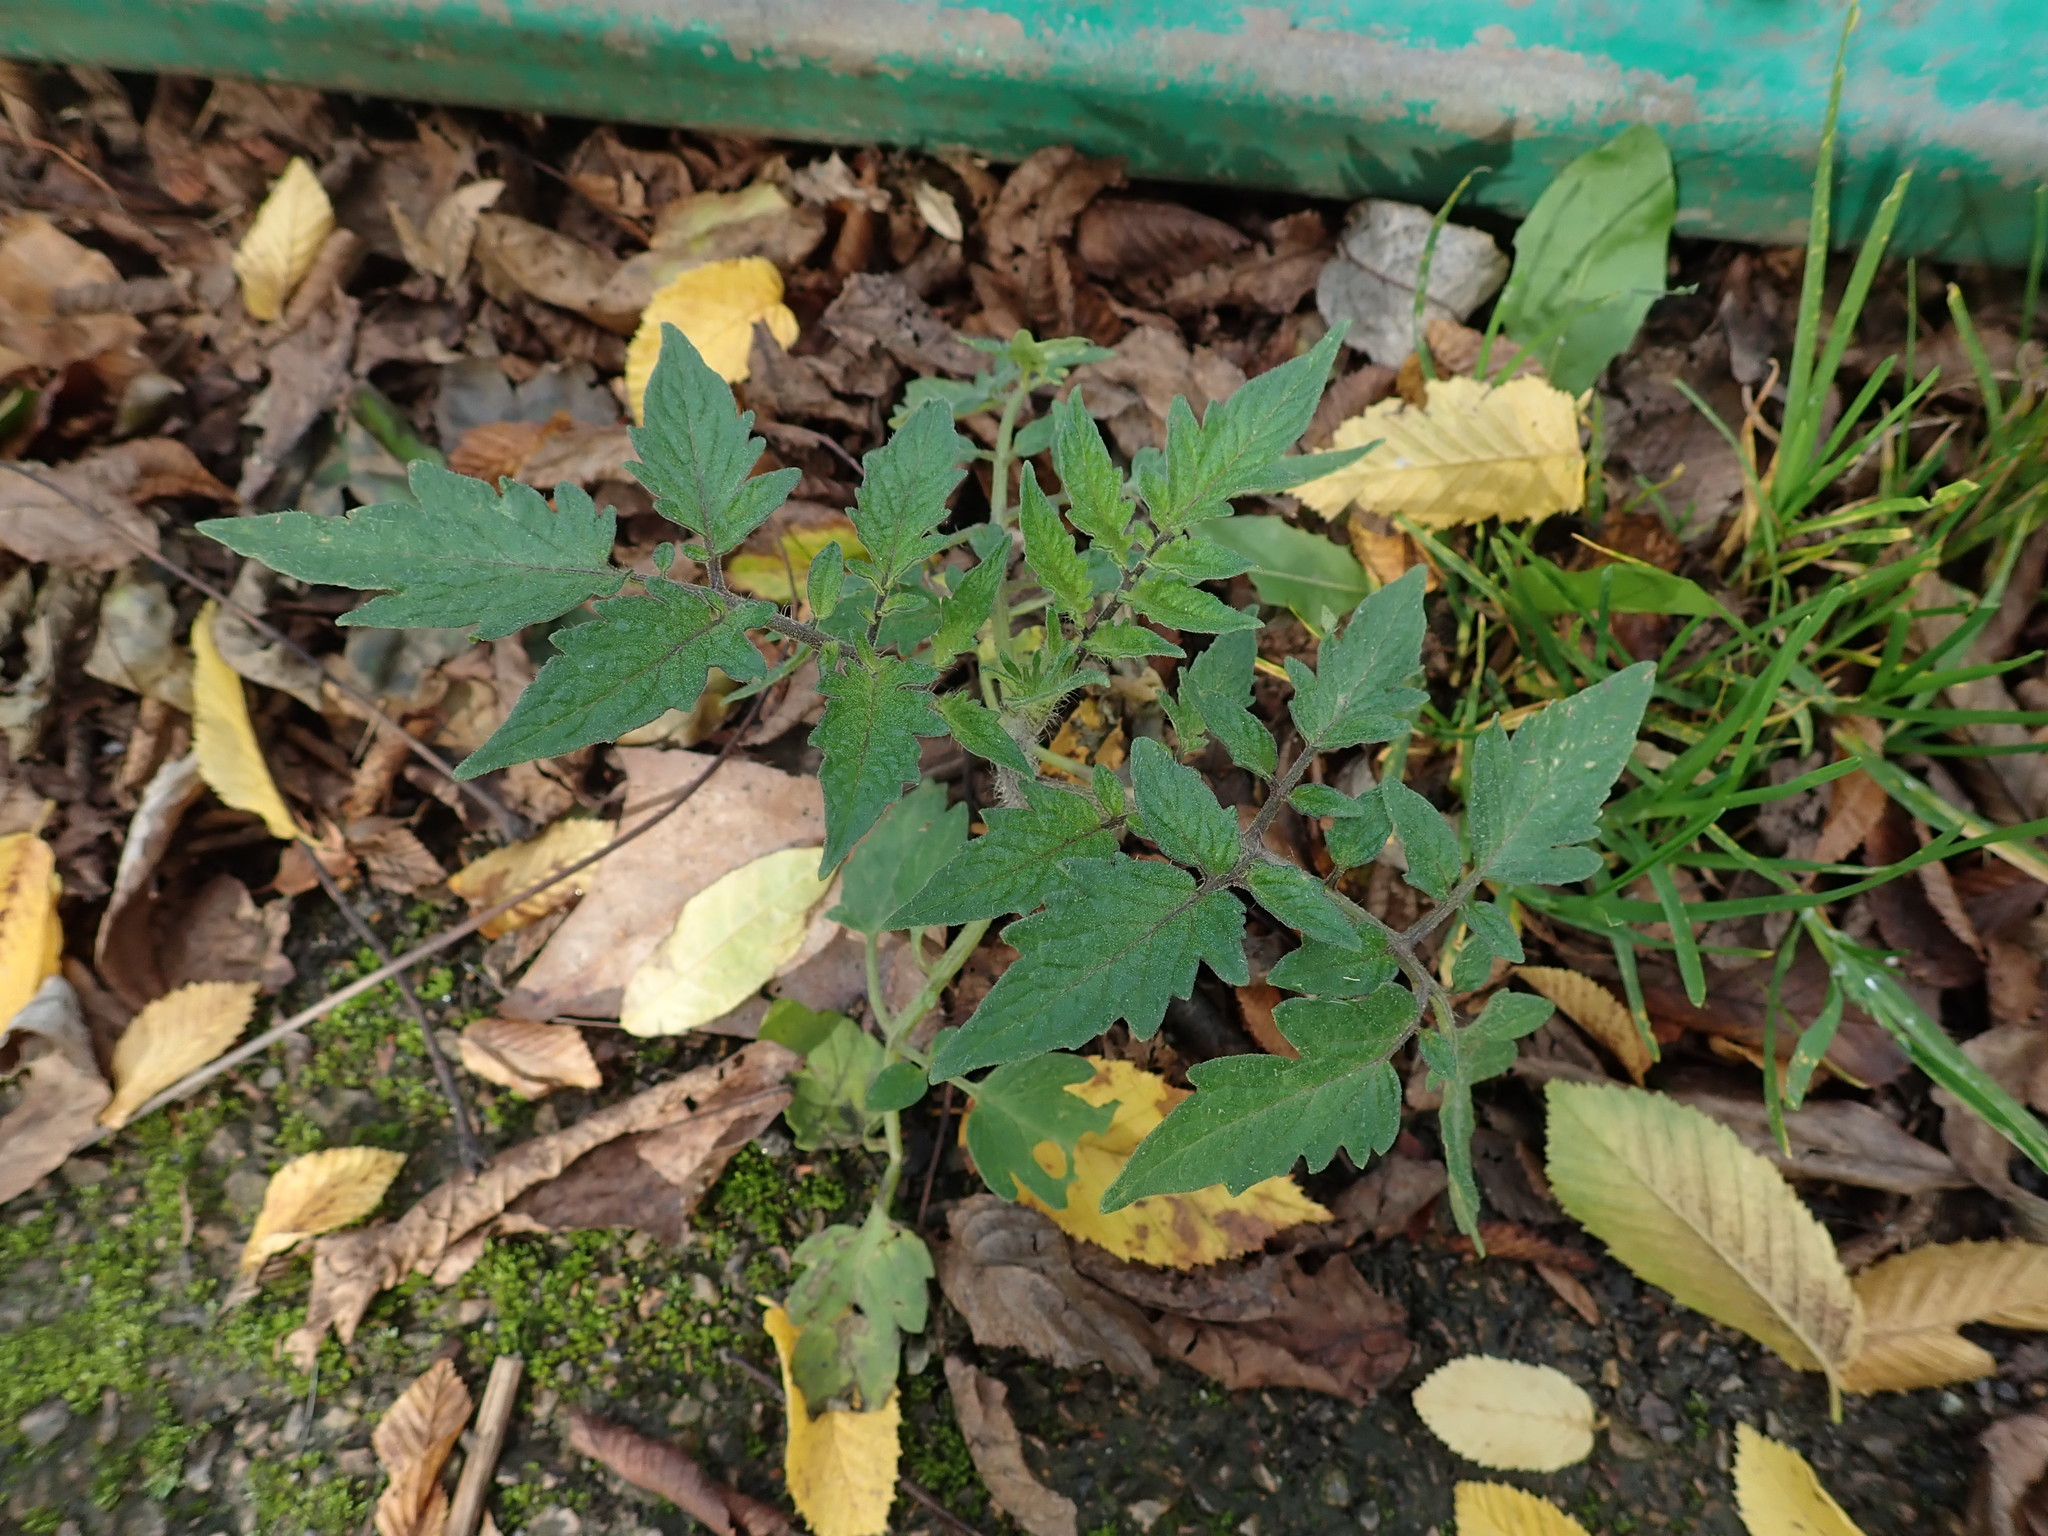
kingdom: Plantae
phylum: Tracheophyta
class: Magnoliopsida
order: Solanales
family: Solanaceae
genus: Solanum
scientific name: Solanum lycopersicum
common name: Garden tomato
